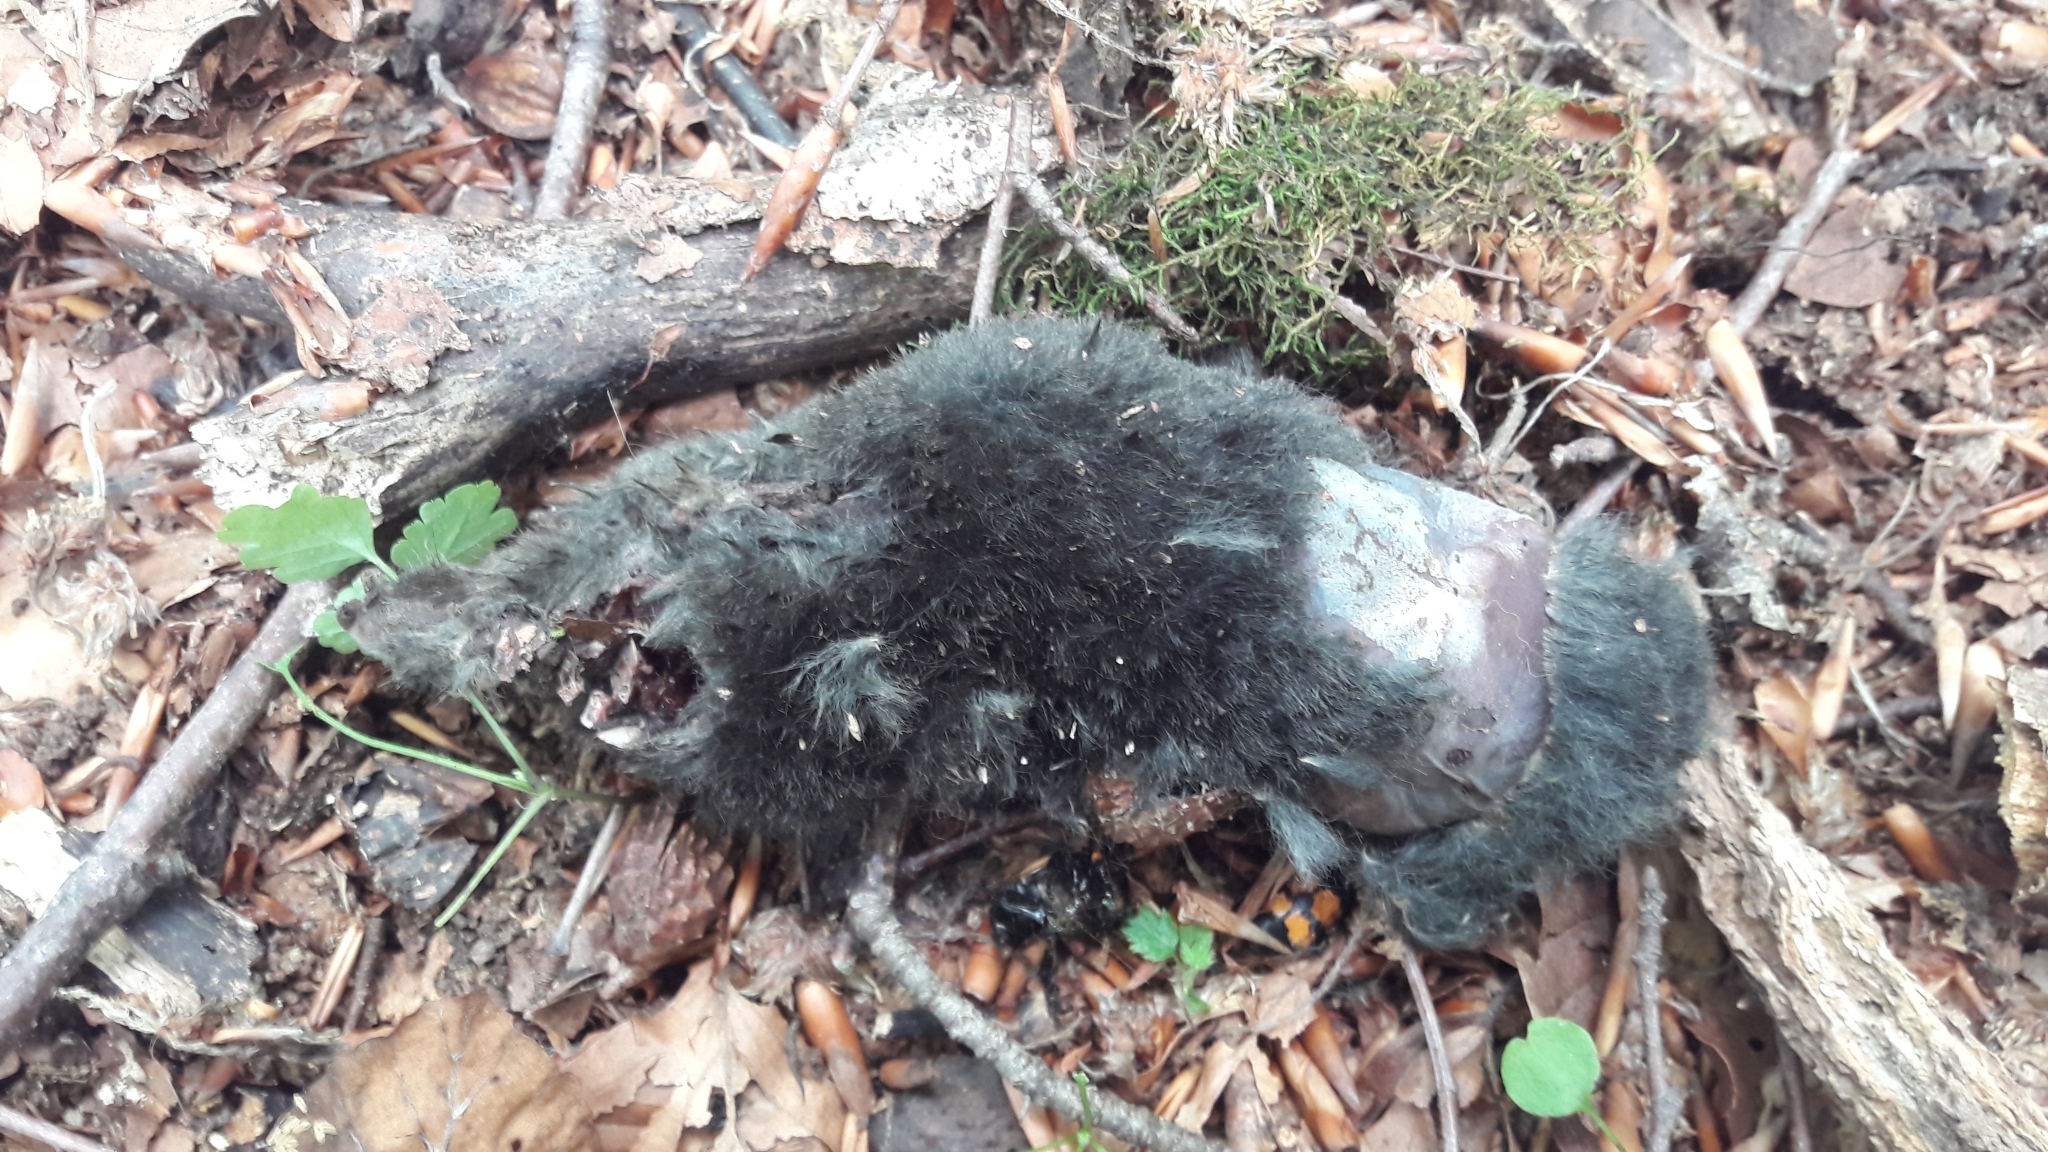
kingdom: Animalia
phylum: Chordata
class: Mammalia
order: Soricomorpha
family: Talpidae
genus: Talpa
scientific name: Talpa
